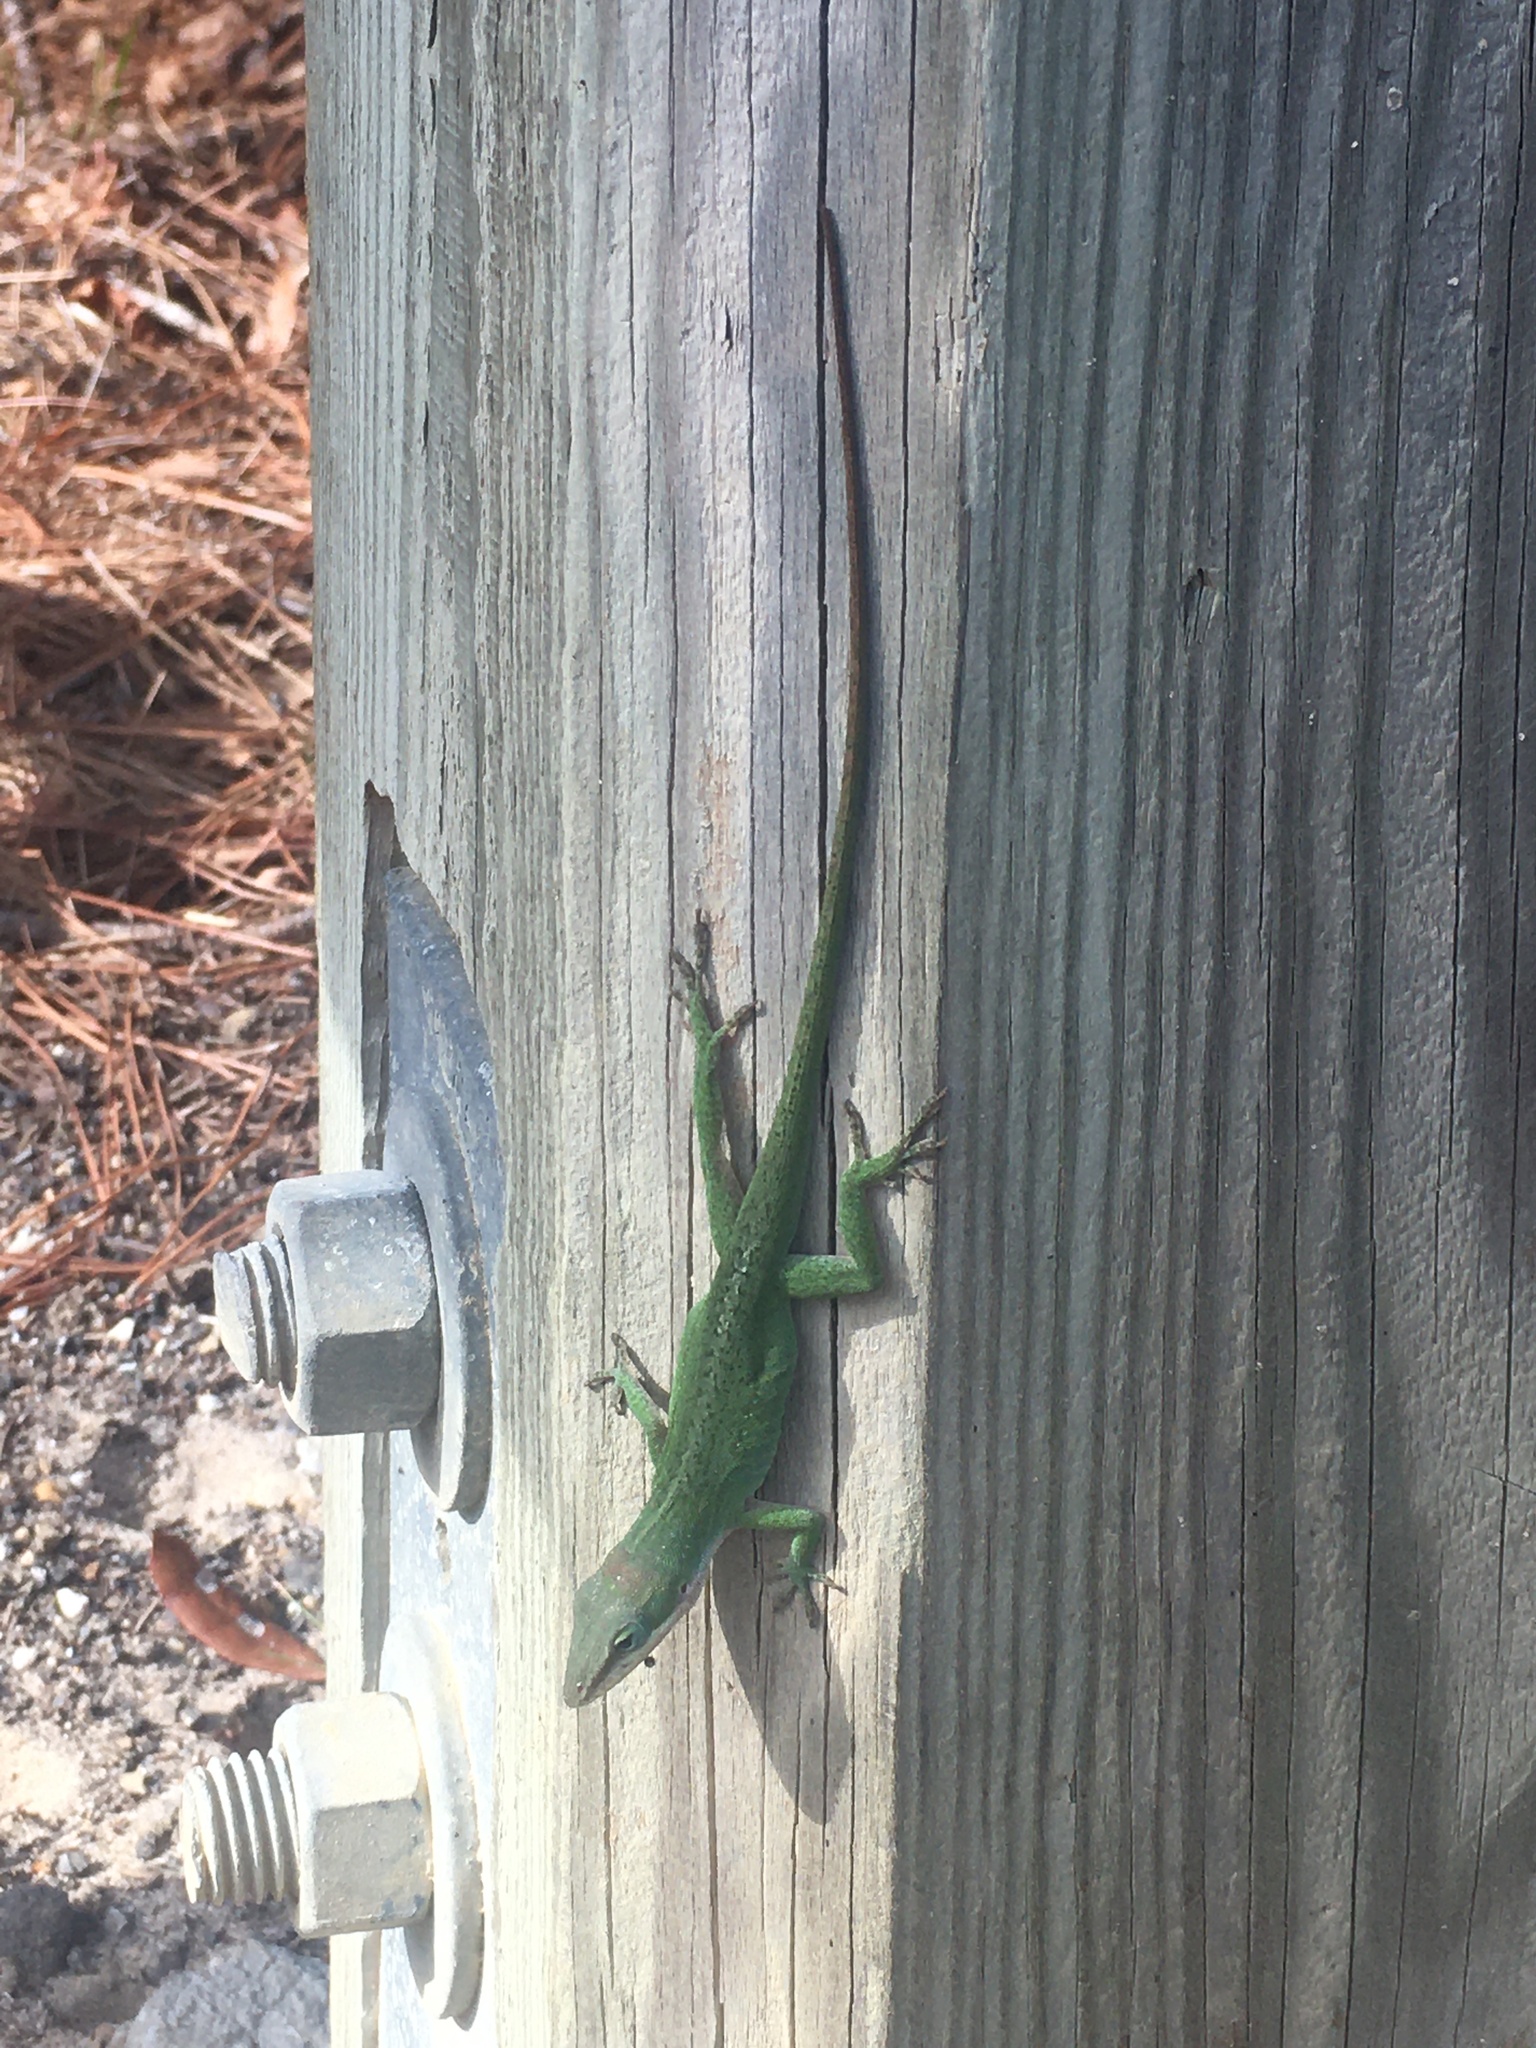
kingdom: Animalia
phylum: Chordata
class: Squamata
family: Dactyloidae
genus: Anolis
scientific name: Anolis carolinensis
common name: Green anole
